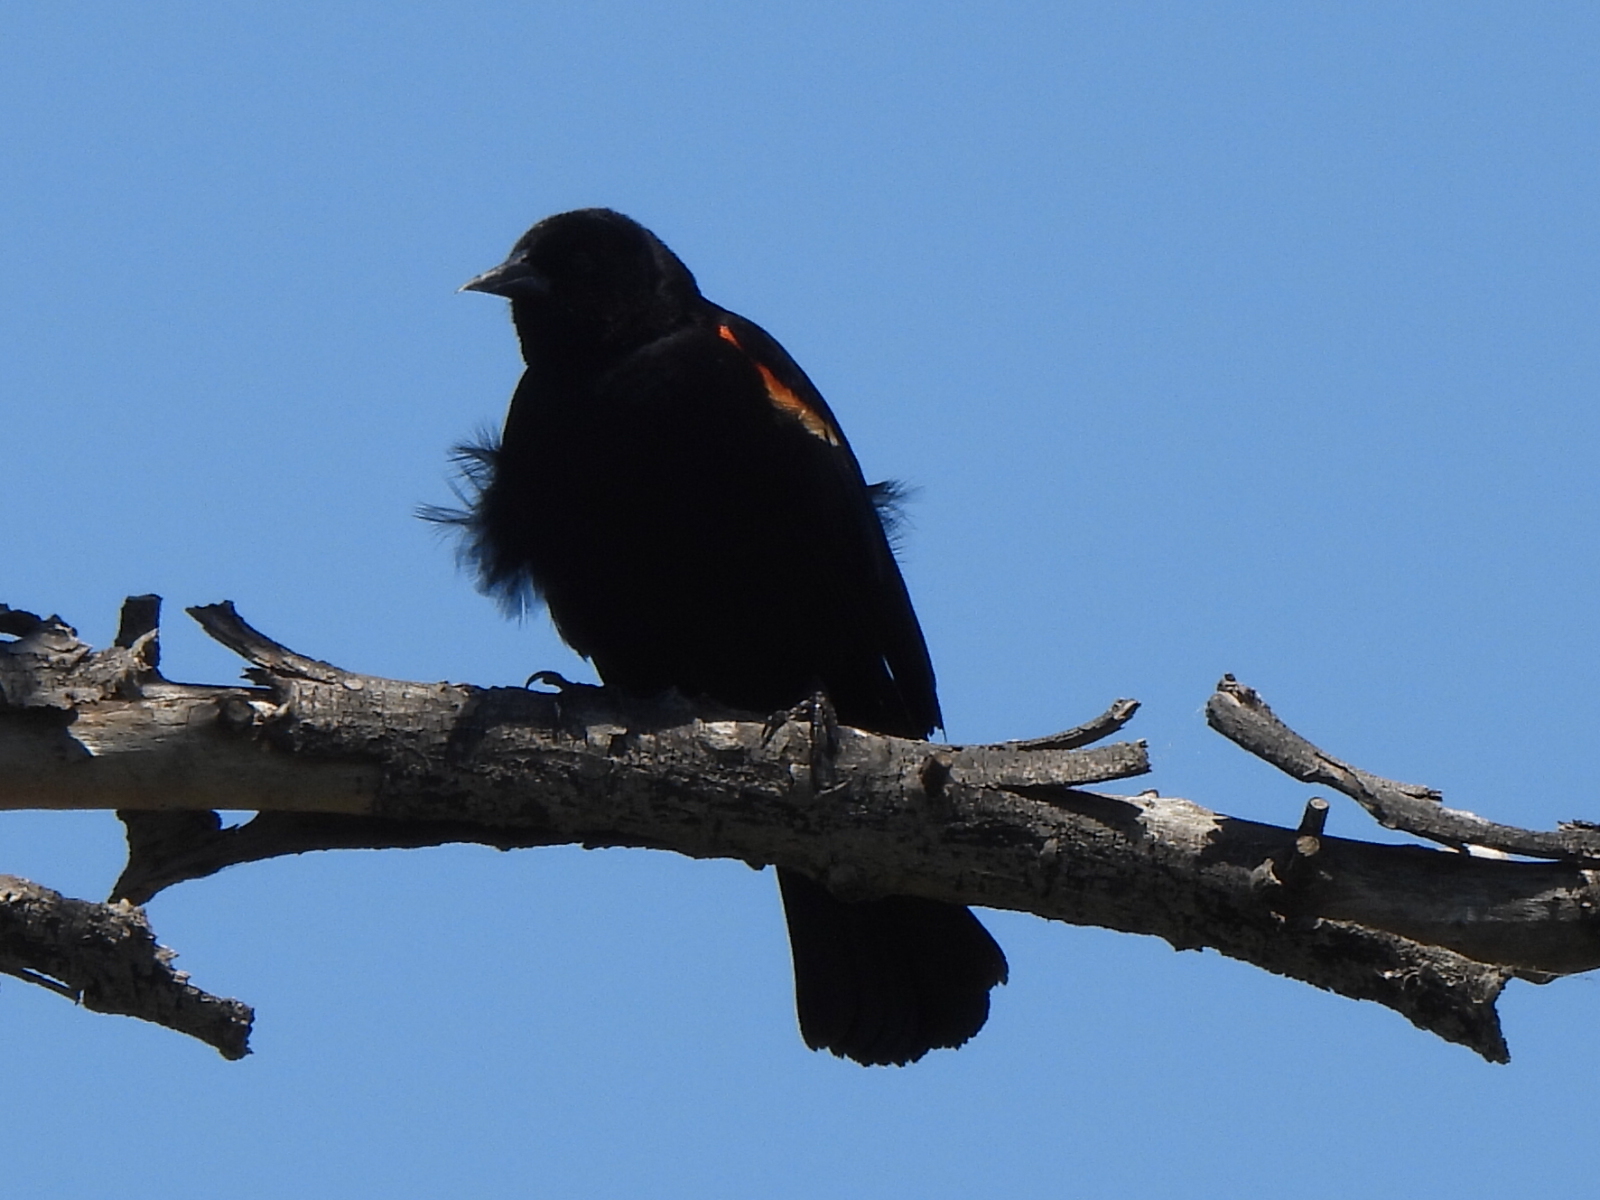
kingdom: Animalia
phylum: Chordata
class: Aves
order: Passeriformes
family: Icteridae
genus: Agelaius
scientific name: Agelaius phoeniceus
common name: Red-winged blackbird
